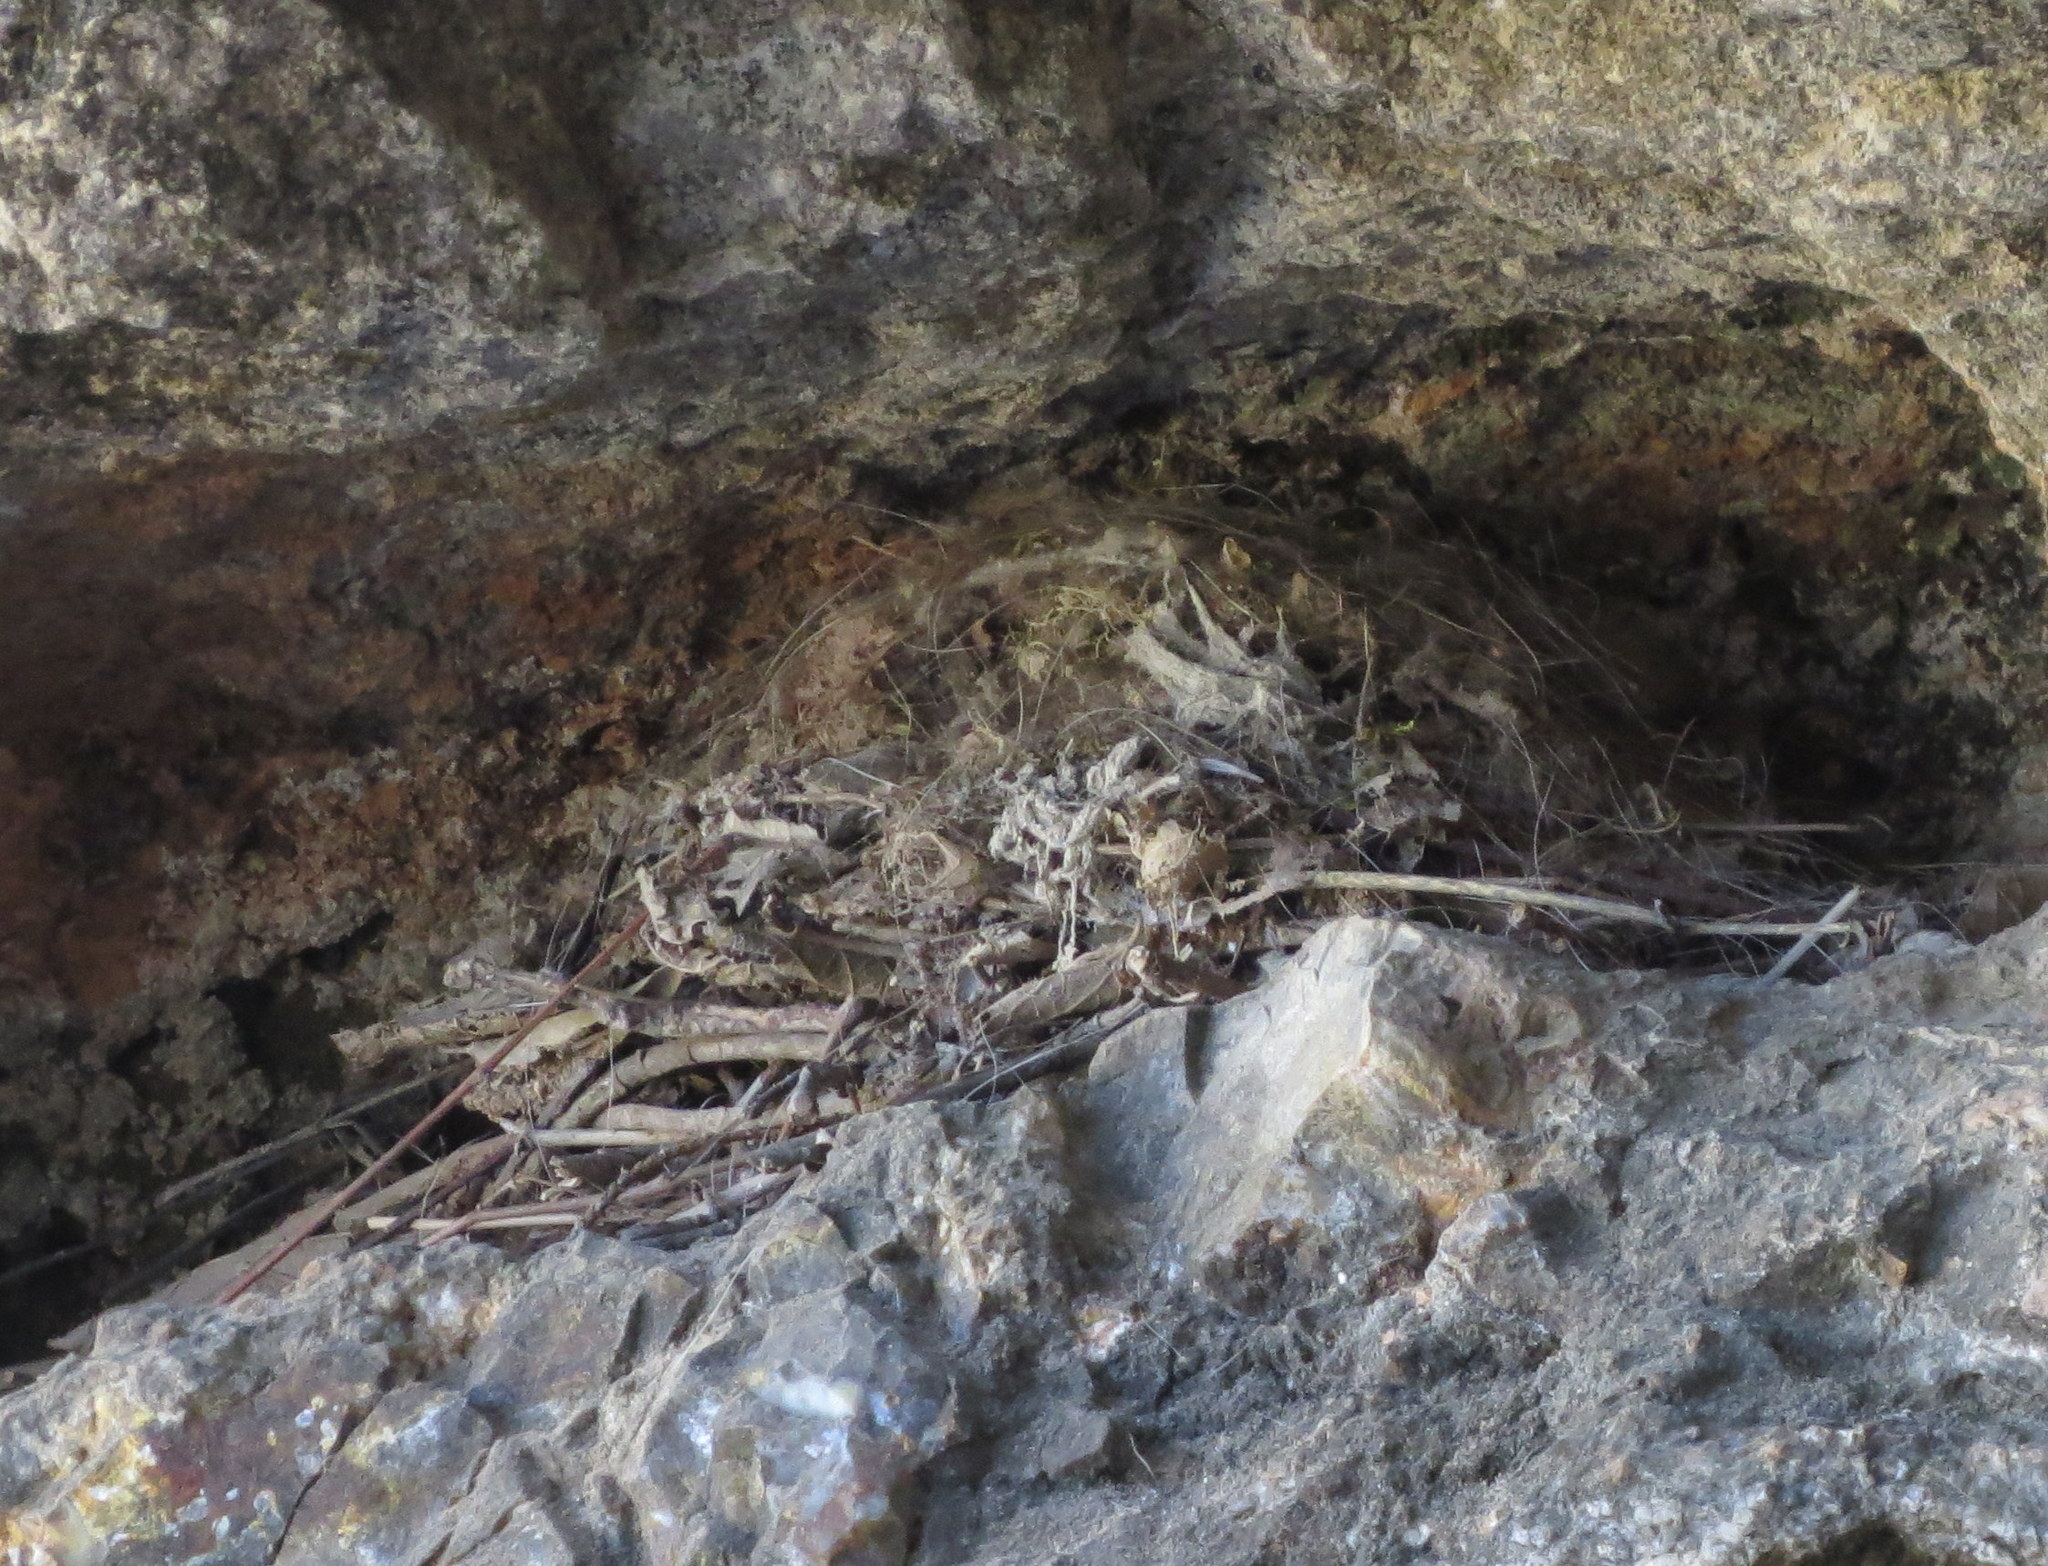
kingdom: Animalia
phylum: Chordata
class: Aves
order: Passeriformes
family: Troglodytidae
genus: Catherpes
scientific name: Catherpes mexicanus
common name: Canyon wren
